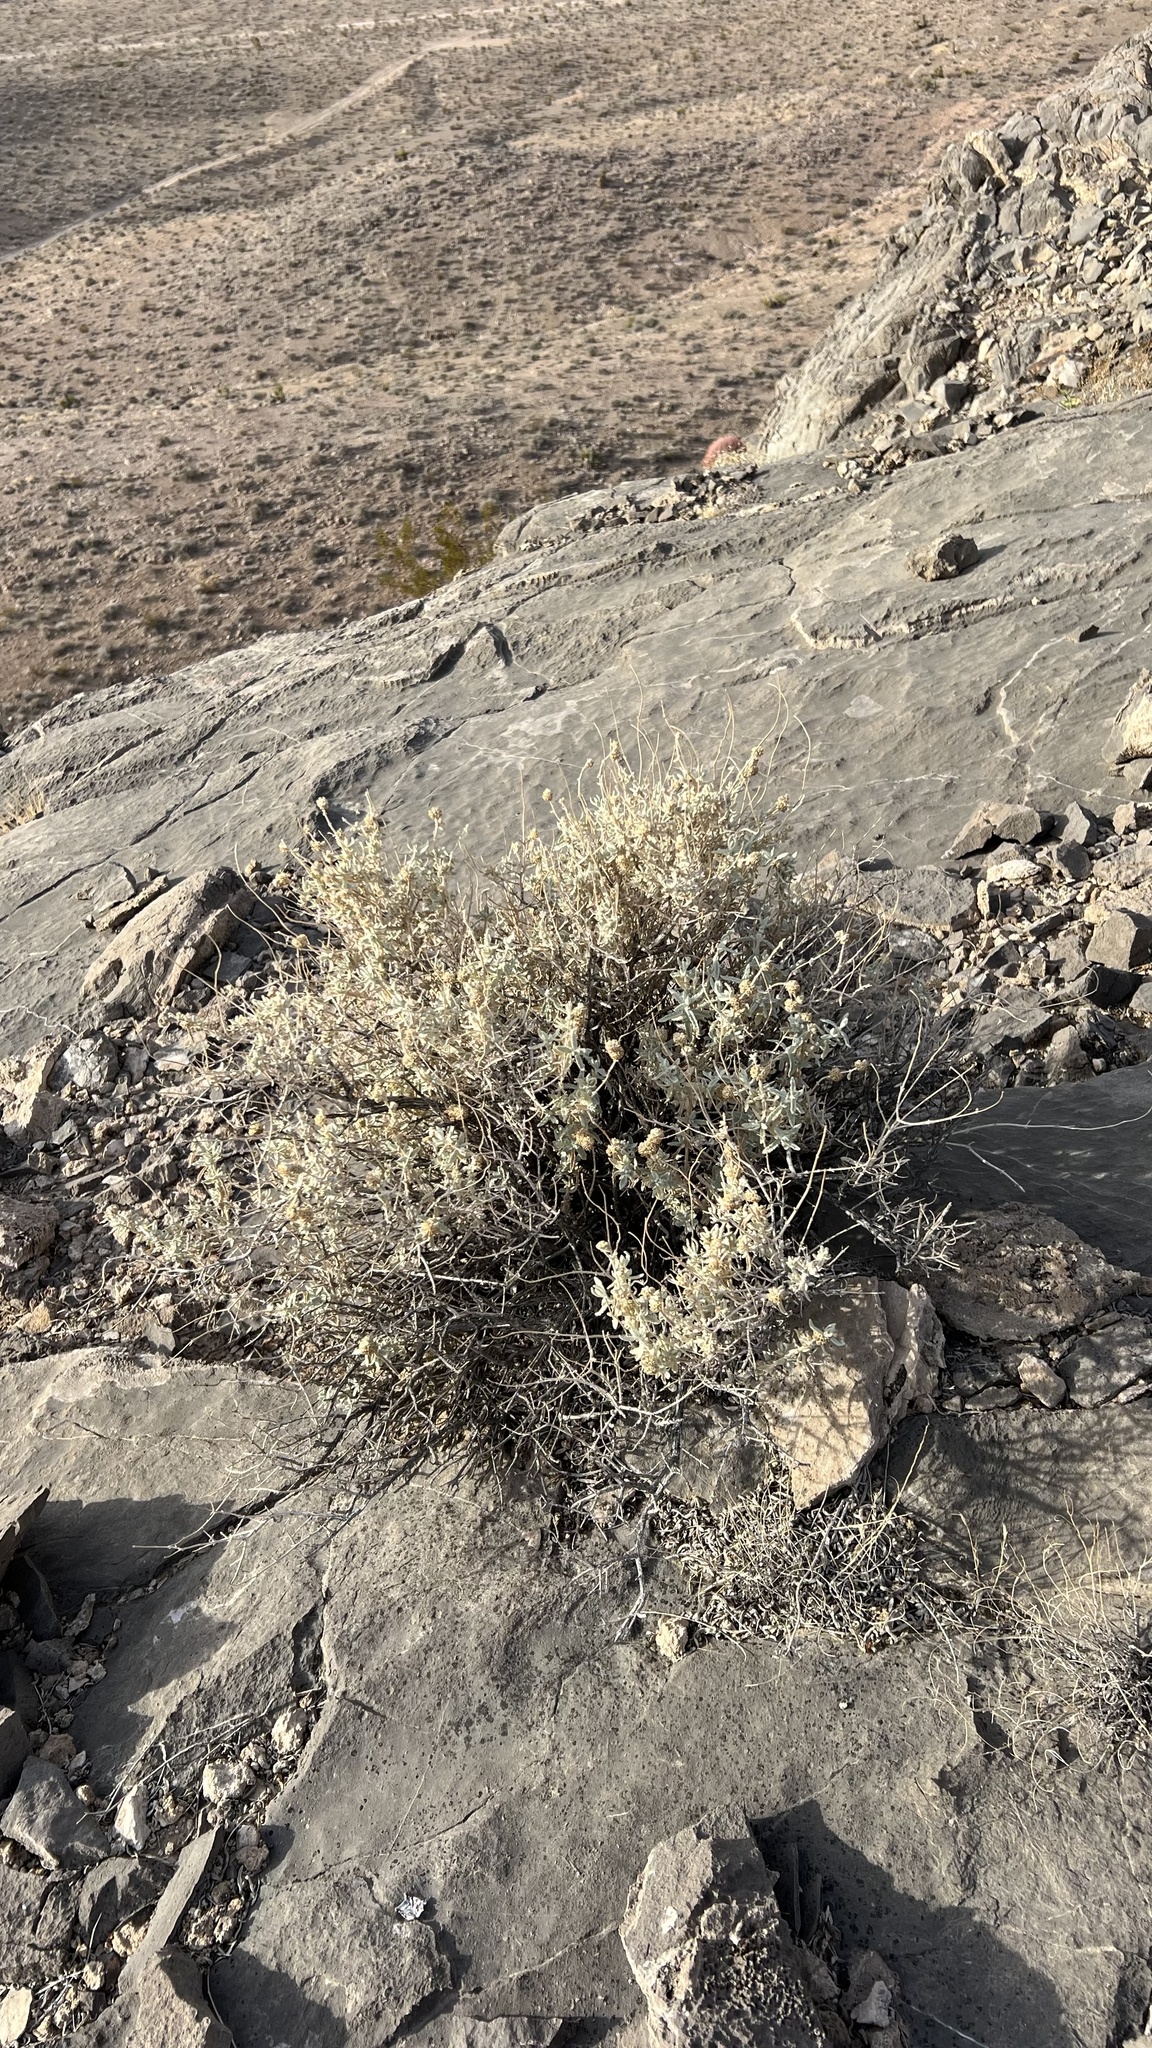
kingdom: Plantae
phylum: Tracheophyta
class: Magnoliopsida
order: Lamiales
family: Scrophulariaceae
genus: Buddleja
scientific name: Buddleja utahensis
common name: Utah butterfly-bush
